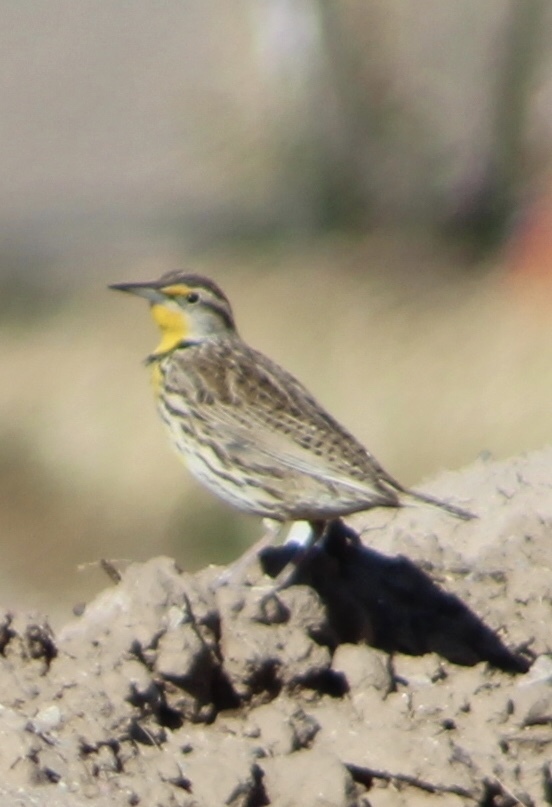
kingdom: Animalia
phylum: Chordata
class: Aves
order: Passeriformes
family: Icteridae
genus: Sturnella
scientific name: Sturnella neglecta
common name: Western meadowlark
